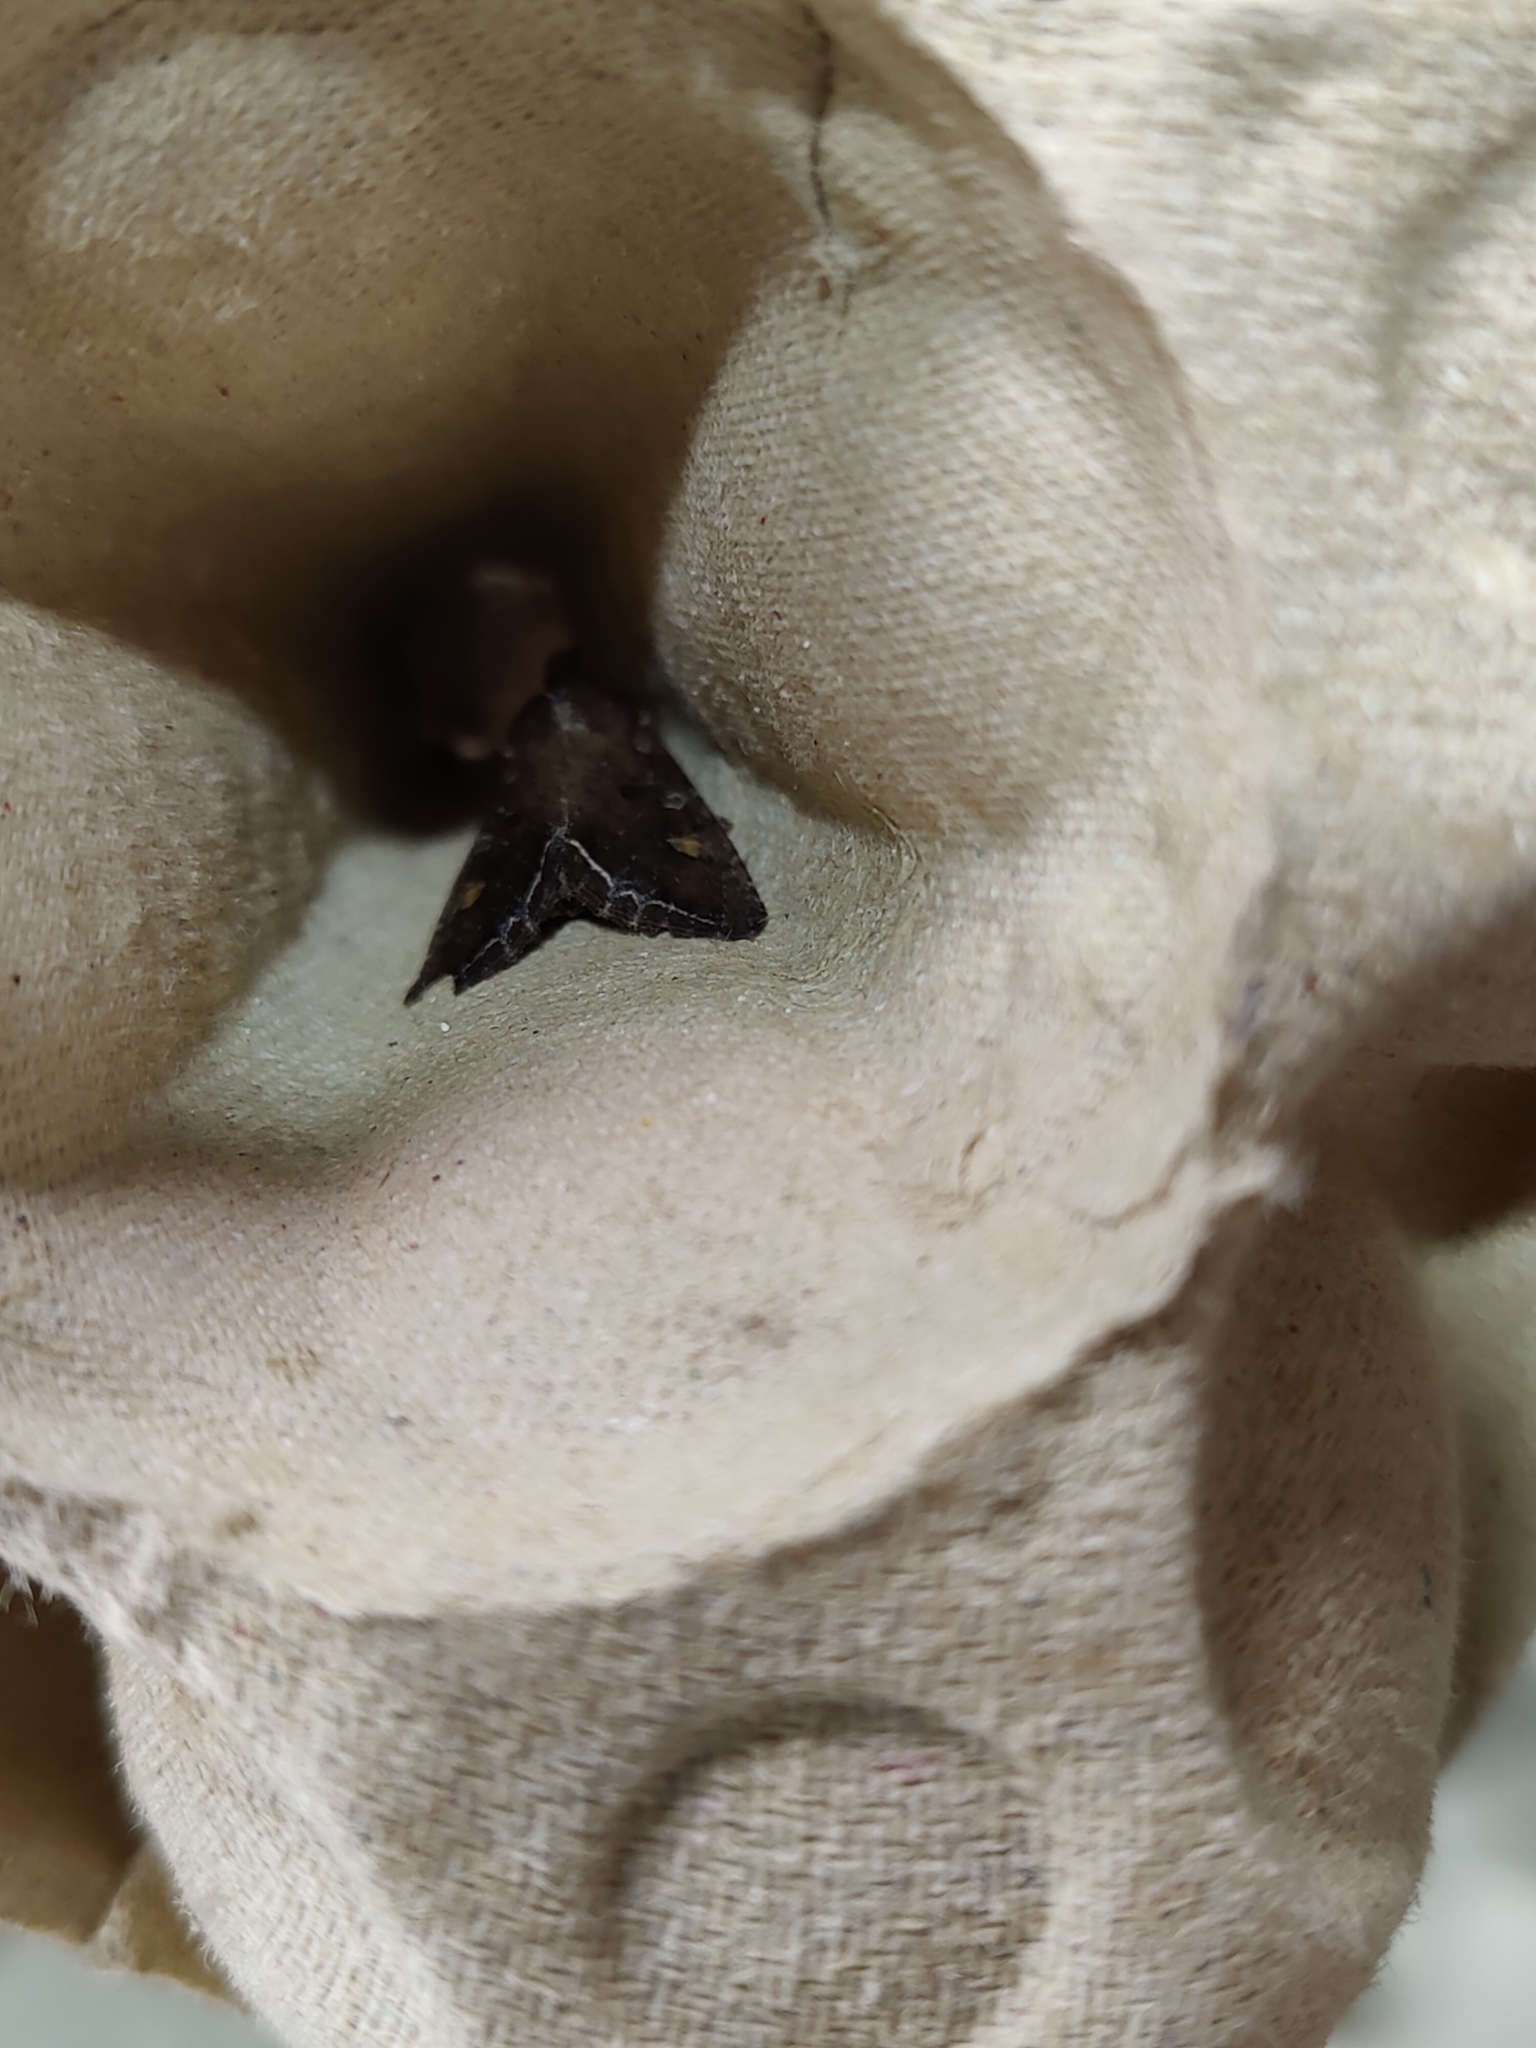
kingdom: Animalia
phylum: Arthropoda
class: Insecta
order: Lepidoptera
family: Noctuidae
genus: Lacanobia
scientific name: Lacanobia oleracea
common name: Bright-line brown-eye
